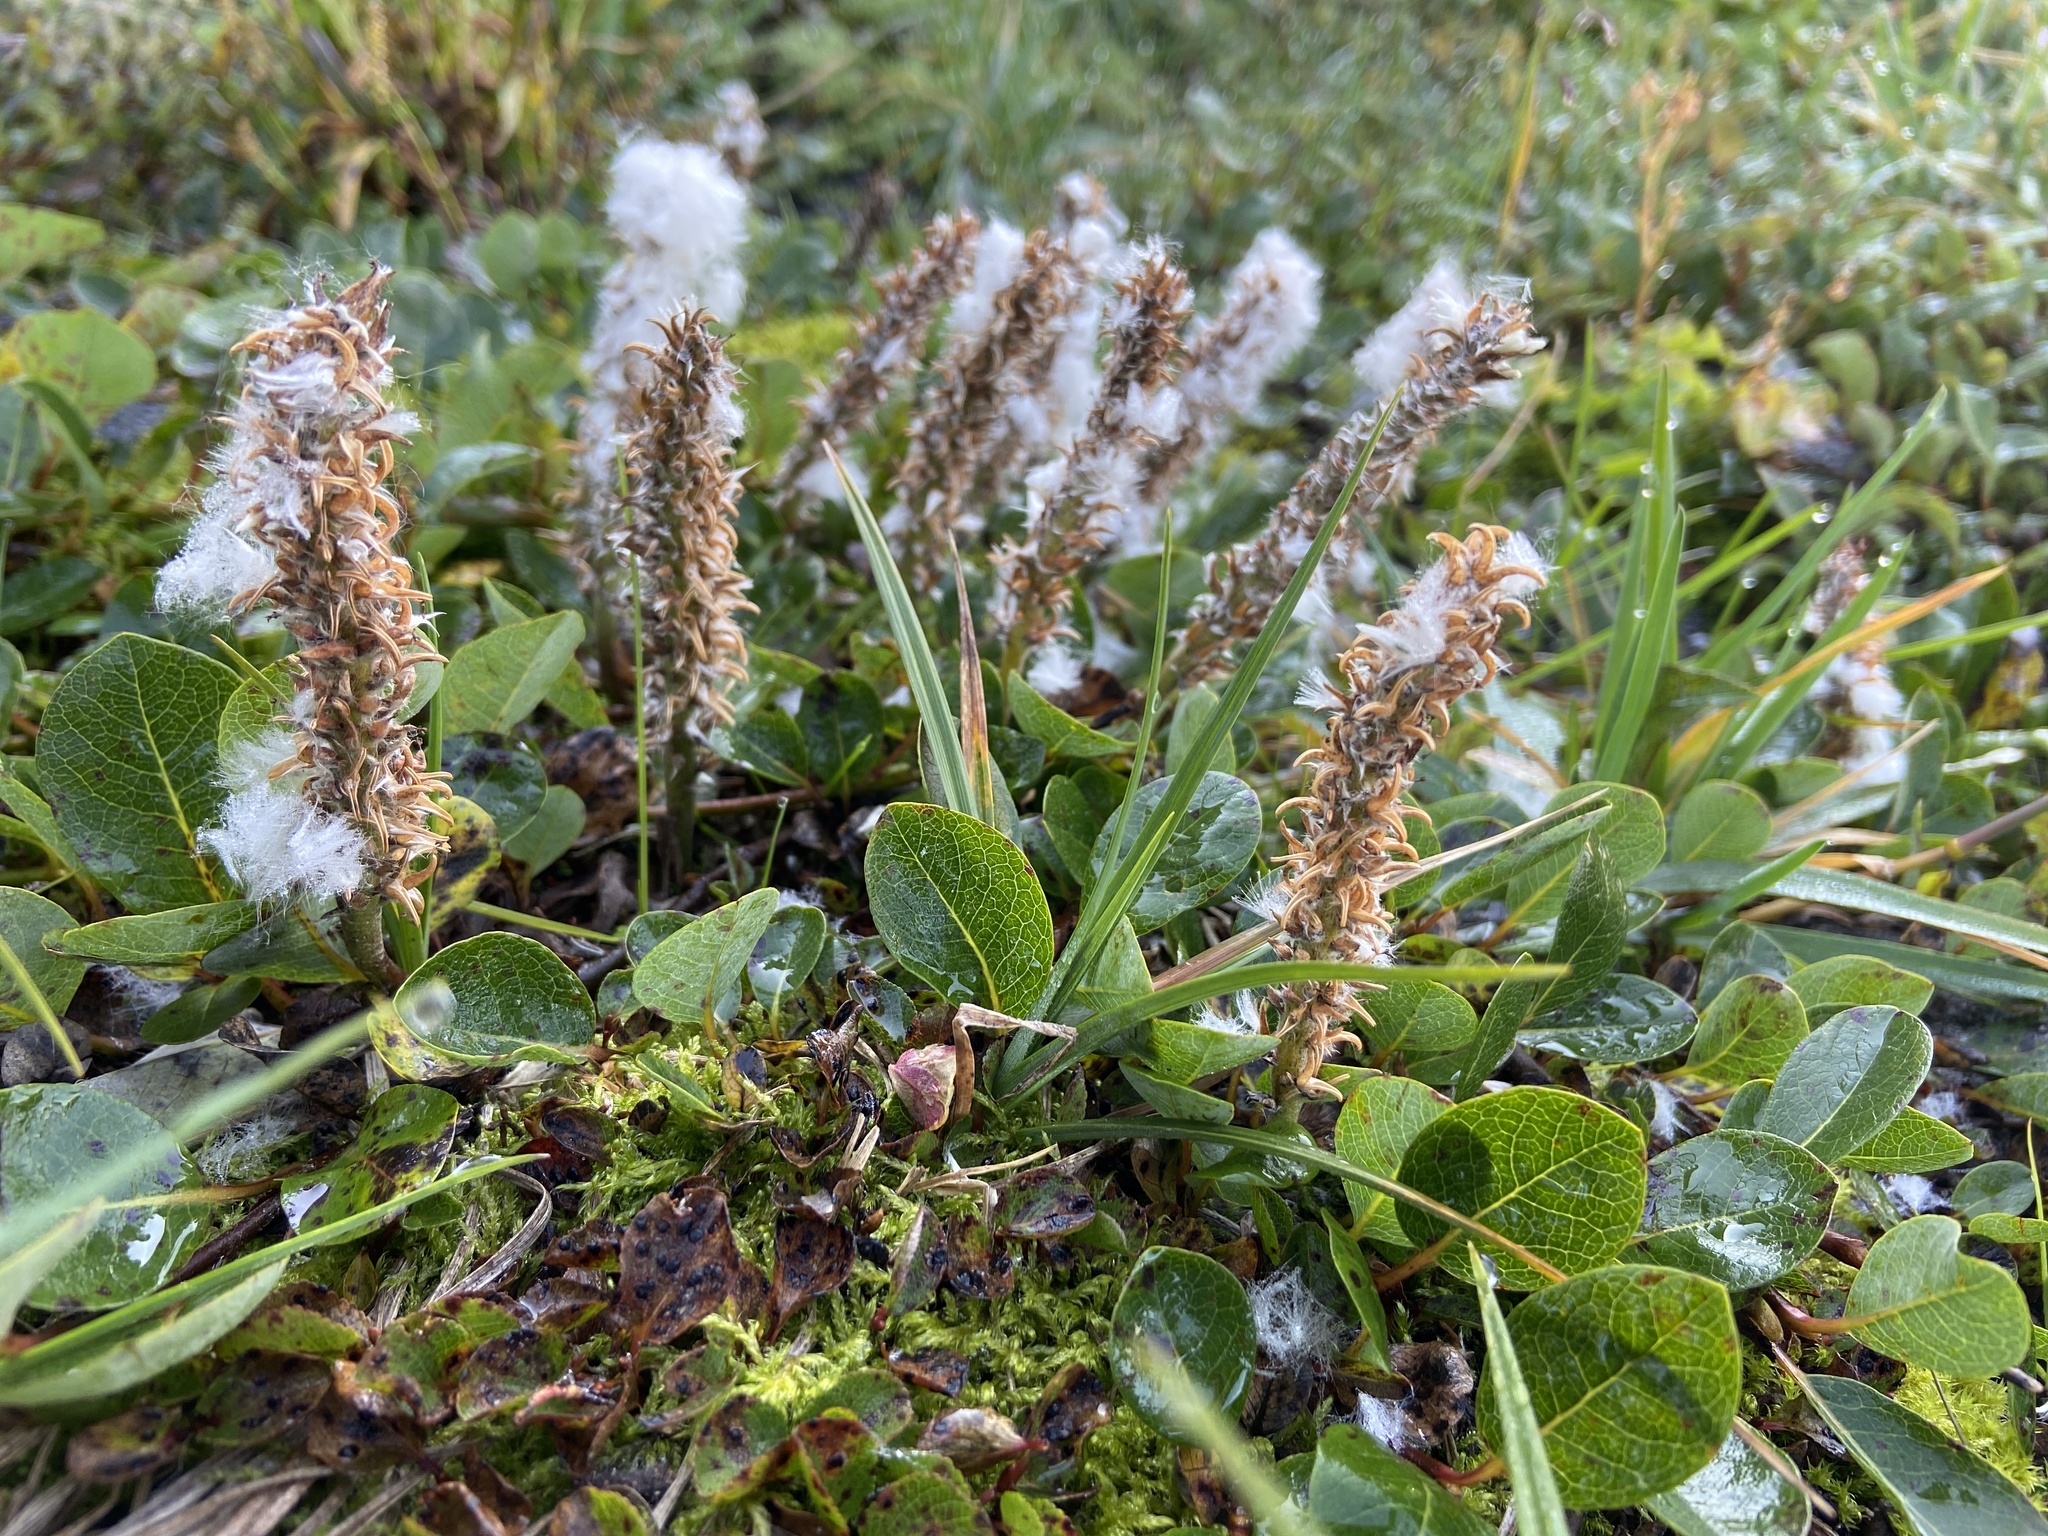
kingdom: Plantae
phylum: Tracheophyta
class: Magnoliopsida
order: Malpighiales
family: Salicaceae
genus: Salix
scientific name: Salix arctophila
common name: Greenland willow
